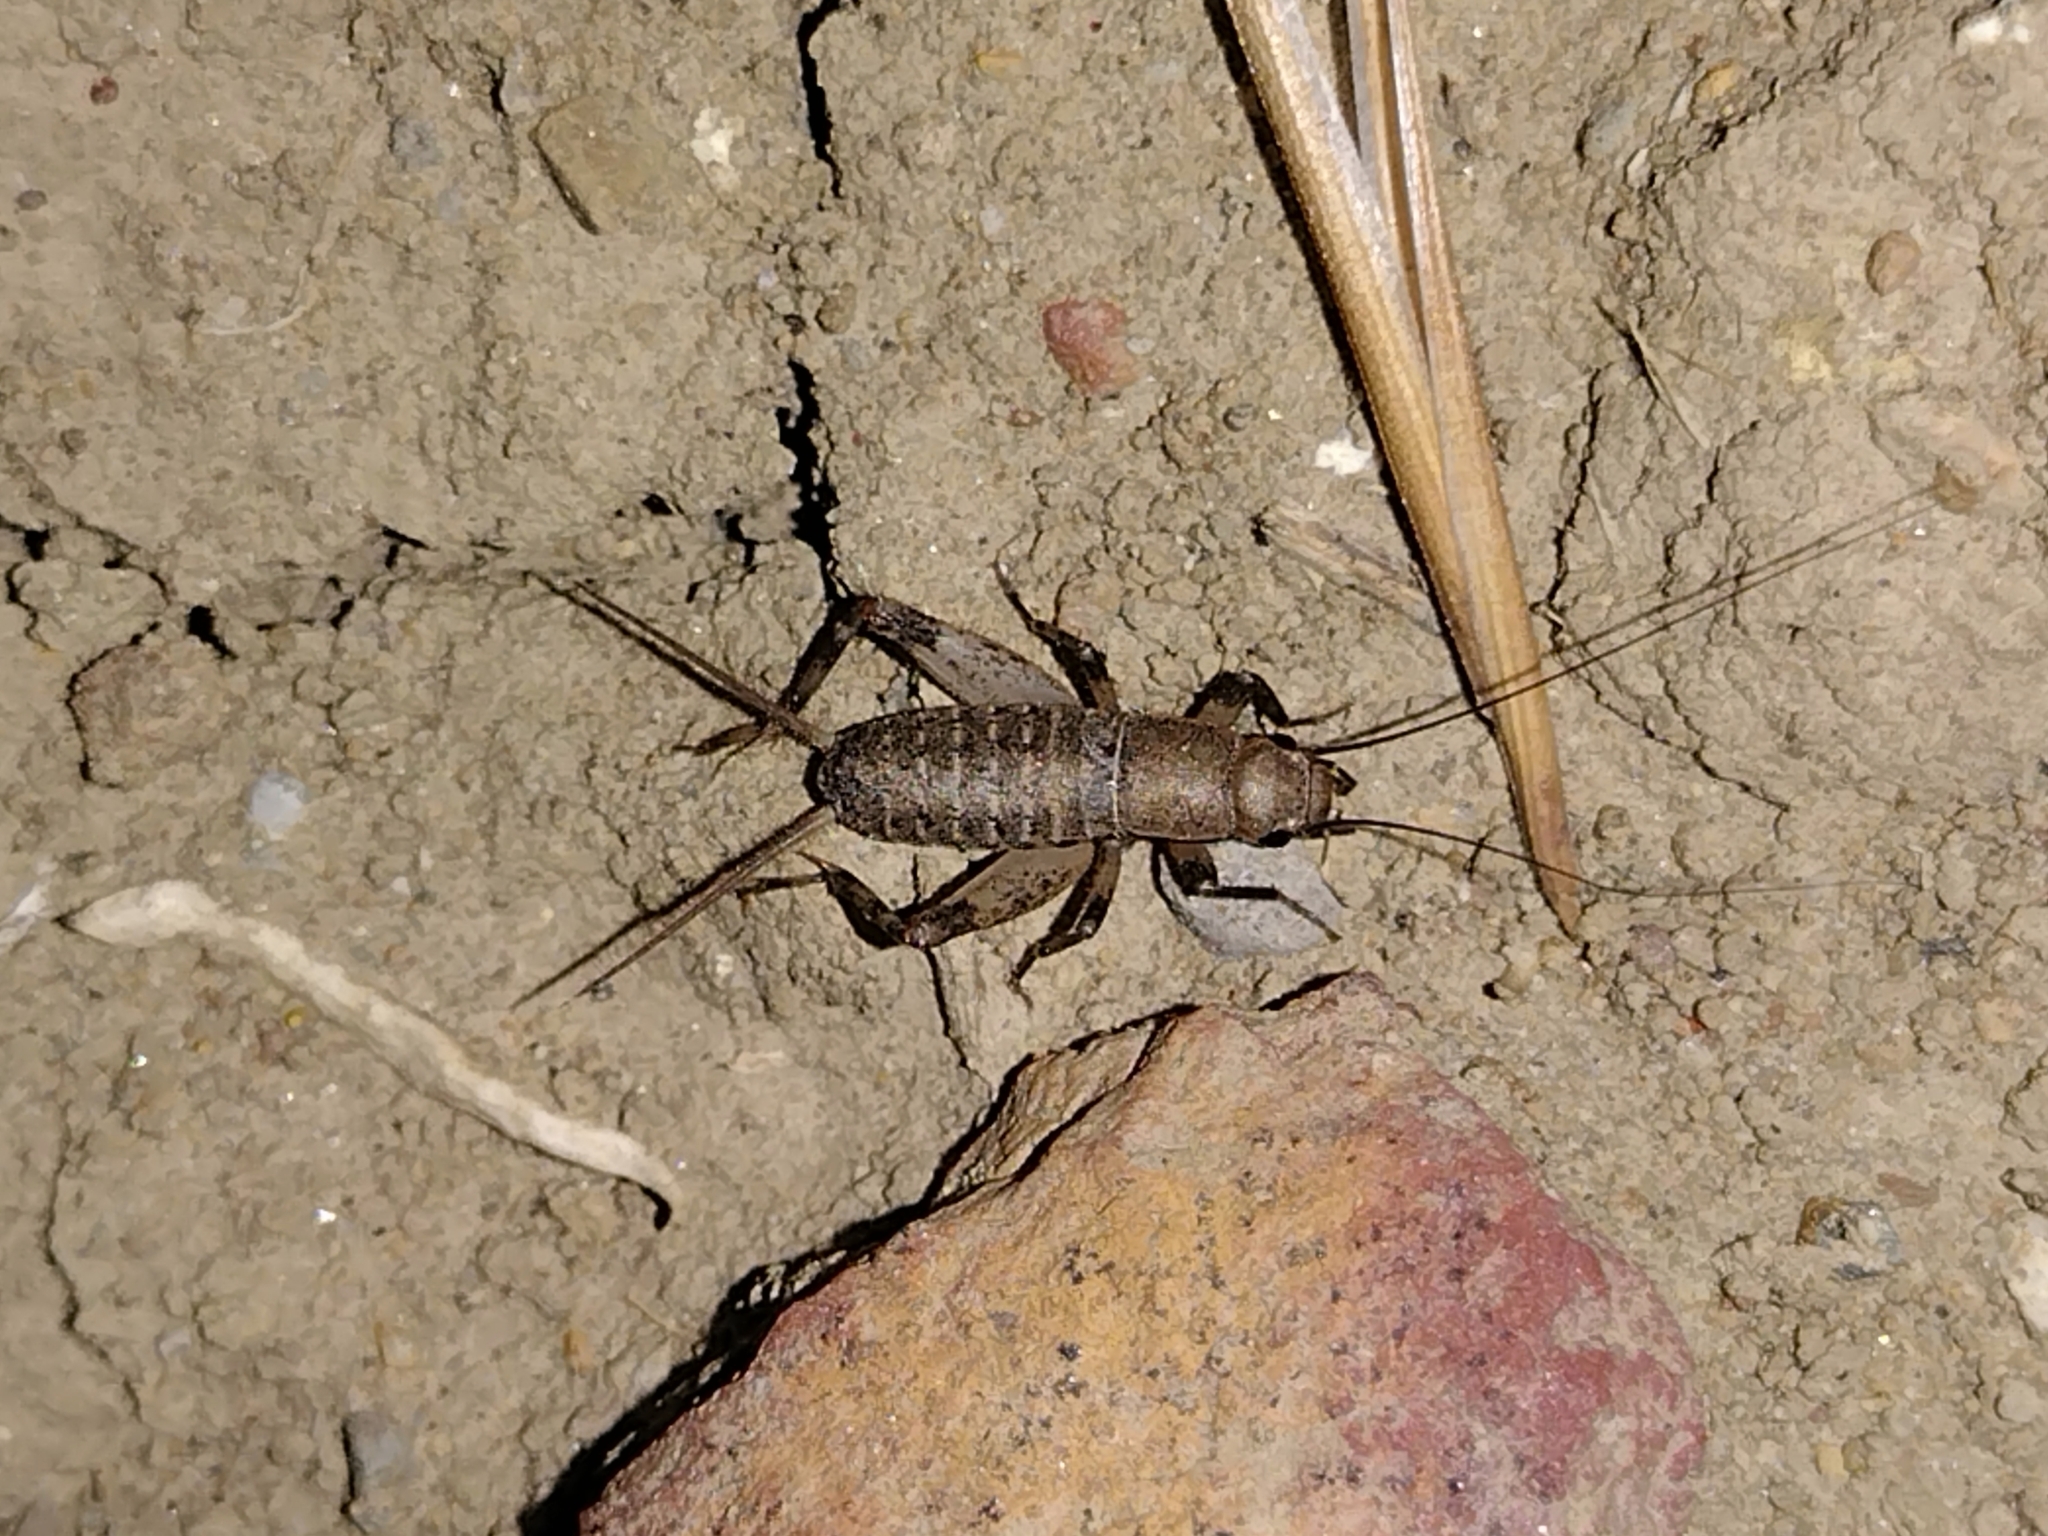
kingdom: Animalia
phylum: Arthropoda
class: Insecta
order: Orthoptera
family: Mogoplistidae
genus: Hoplosphyrum
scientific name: Hoplosphyrum boreale
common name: Long-winged scaly cricket
